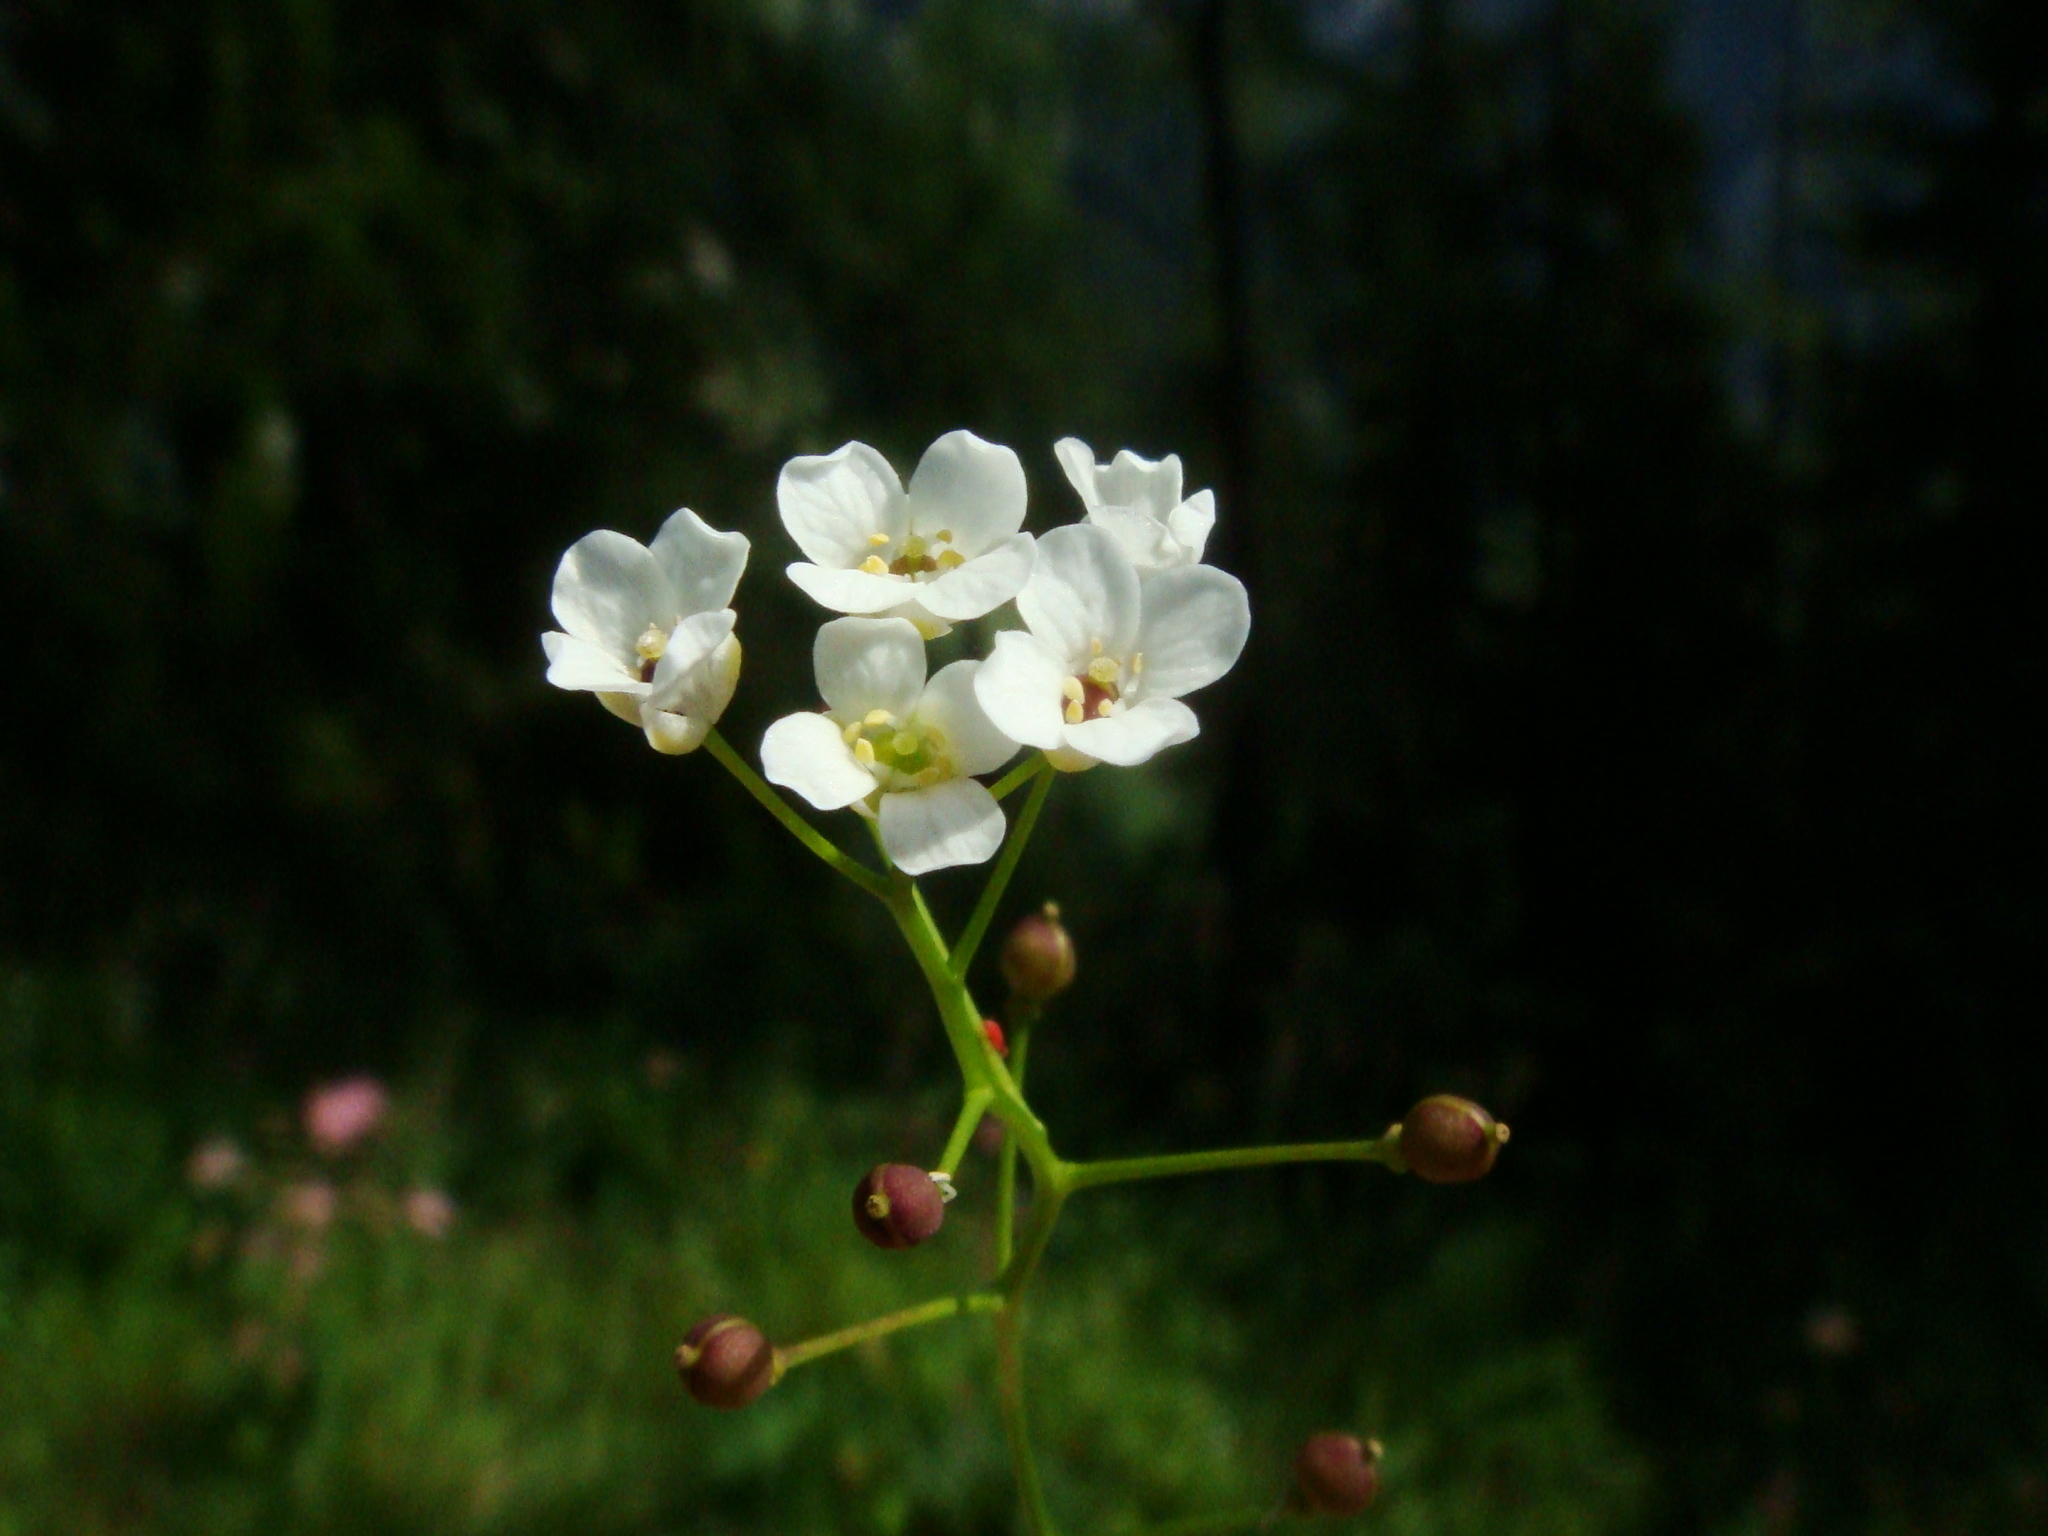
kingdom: Plantae
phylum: Tracheophyta
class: Magnoliopsida
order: Brassicales
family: Brassicaceae
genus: Kernera
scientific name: Kernera saxatilis
